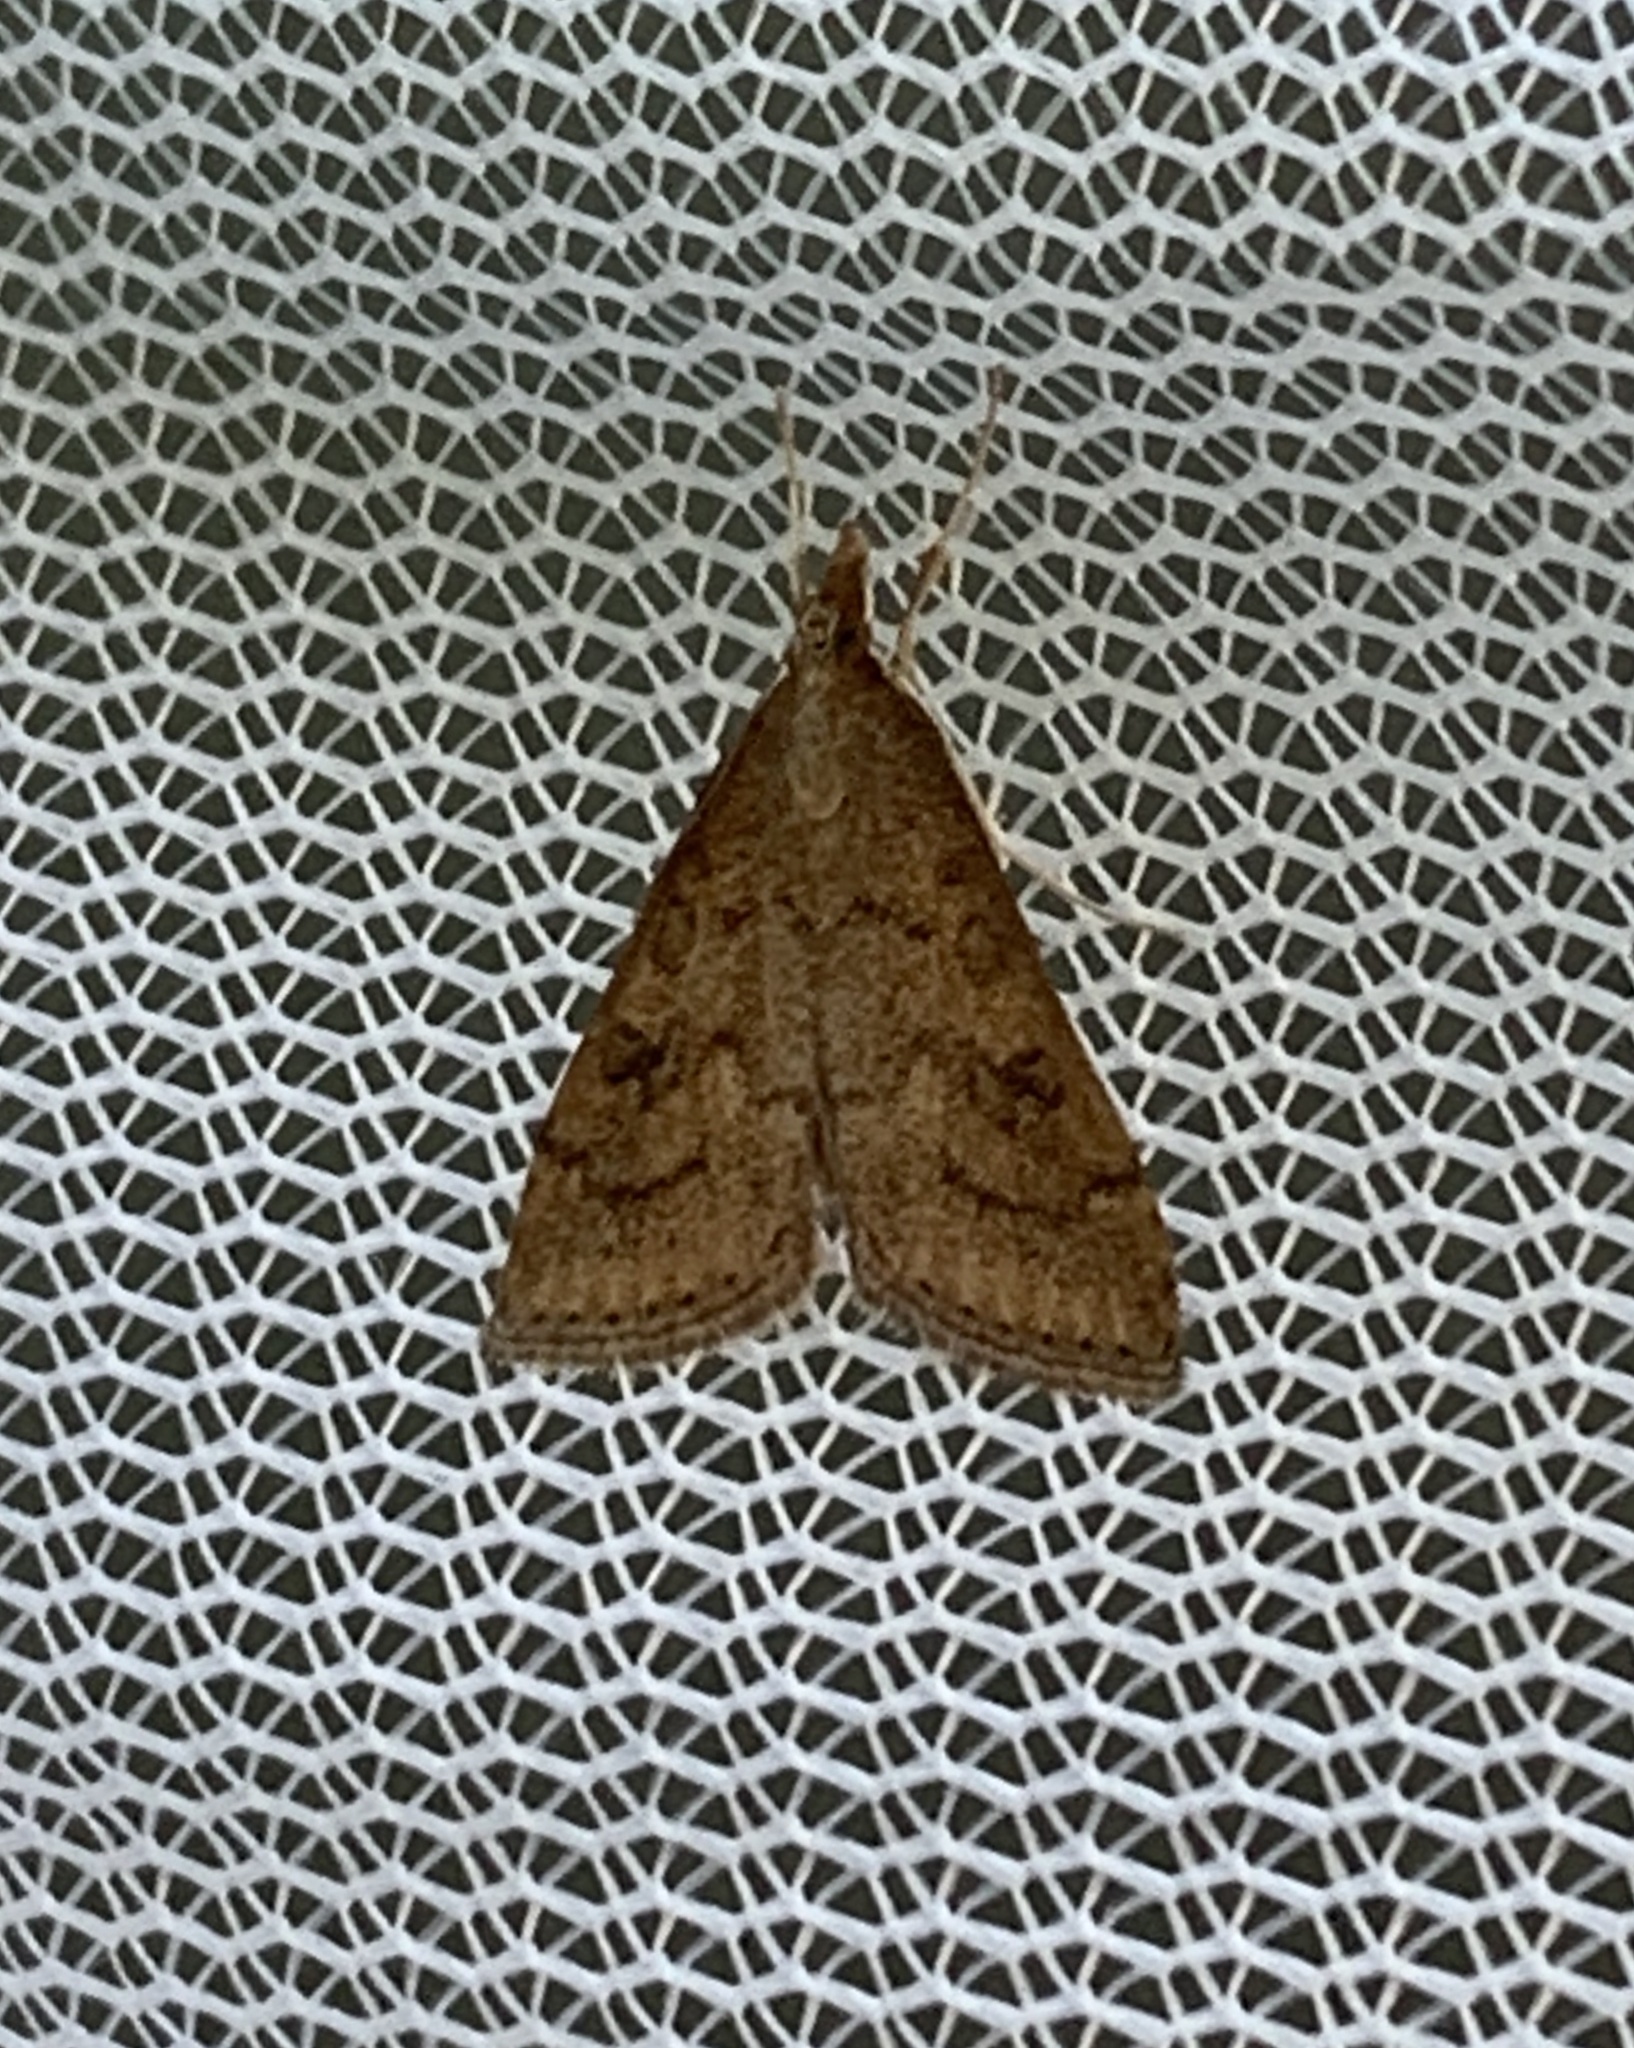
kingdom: Animalia
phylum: Arthropoda
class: Insecta
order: Lepidoptera
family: Crambidae
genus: Udea
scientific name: Udea rubigalis
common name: Celery leaftier moth
